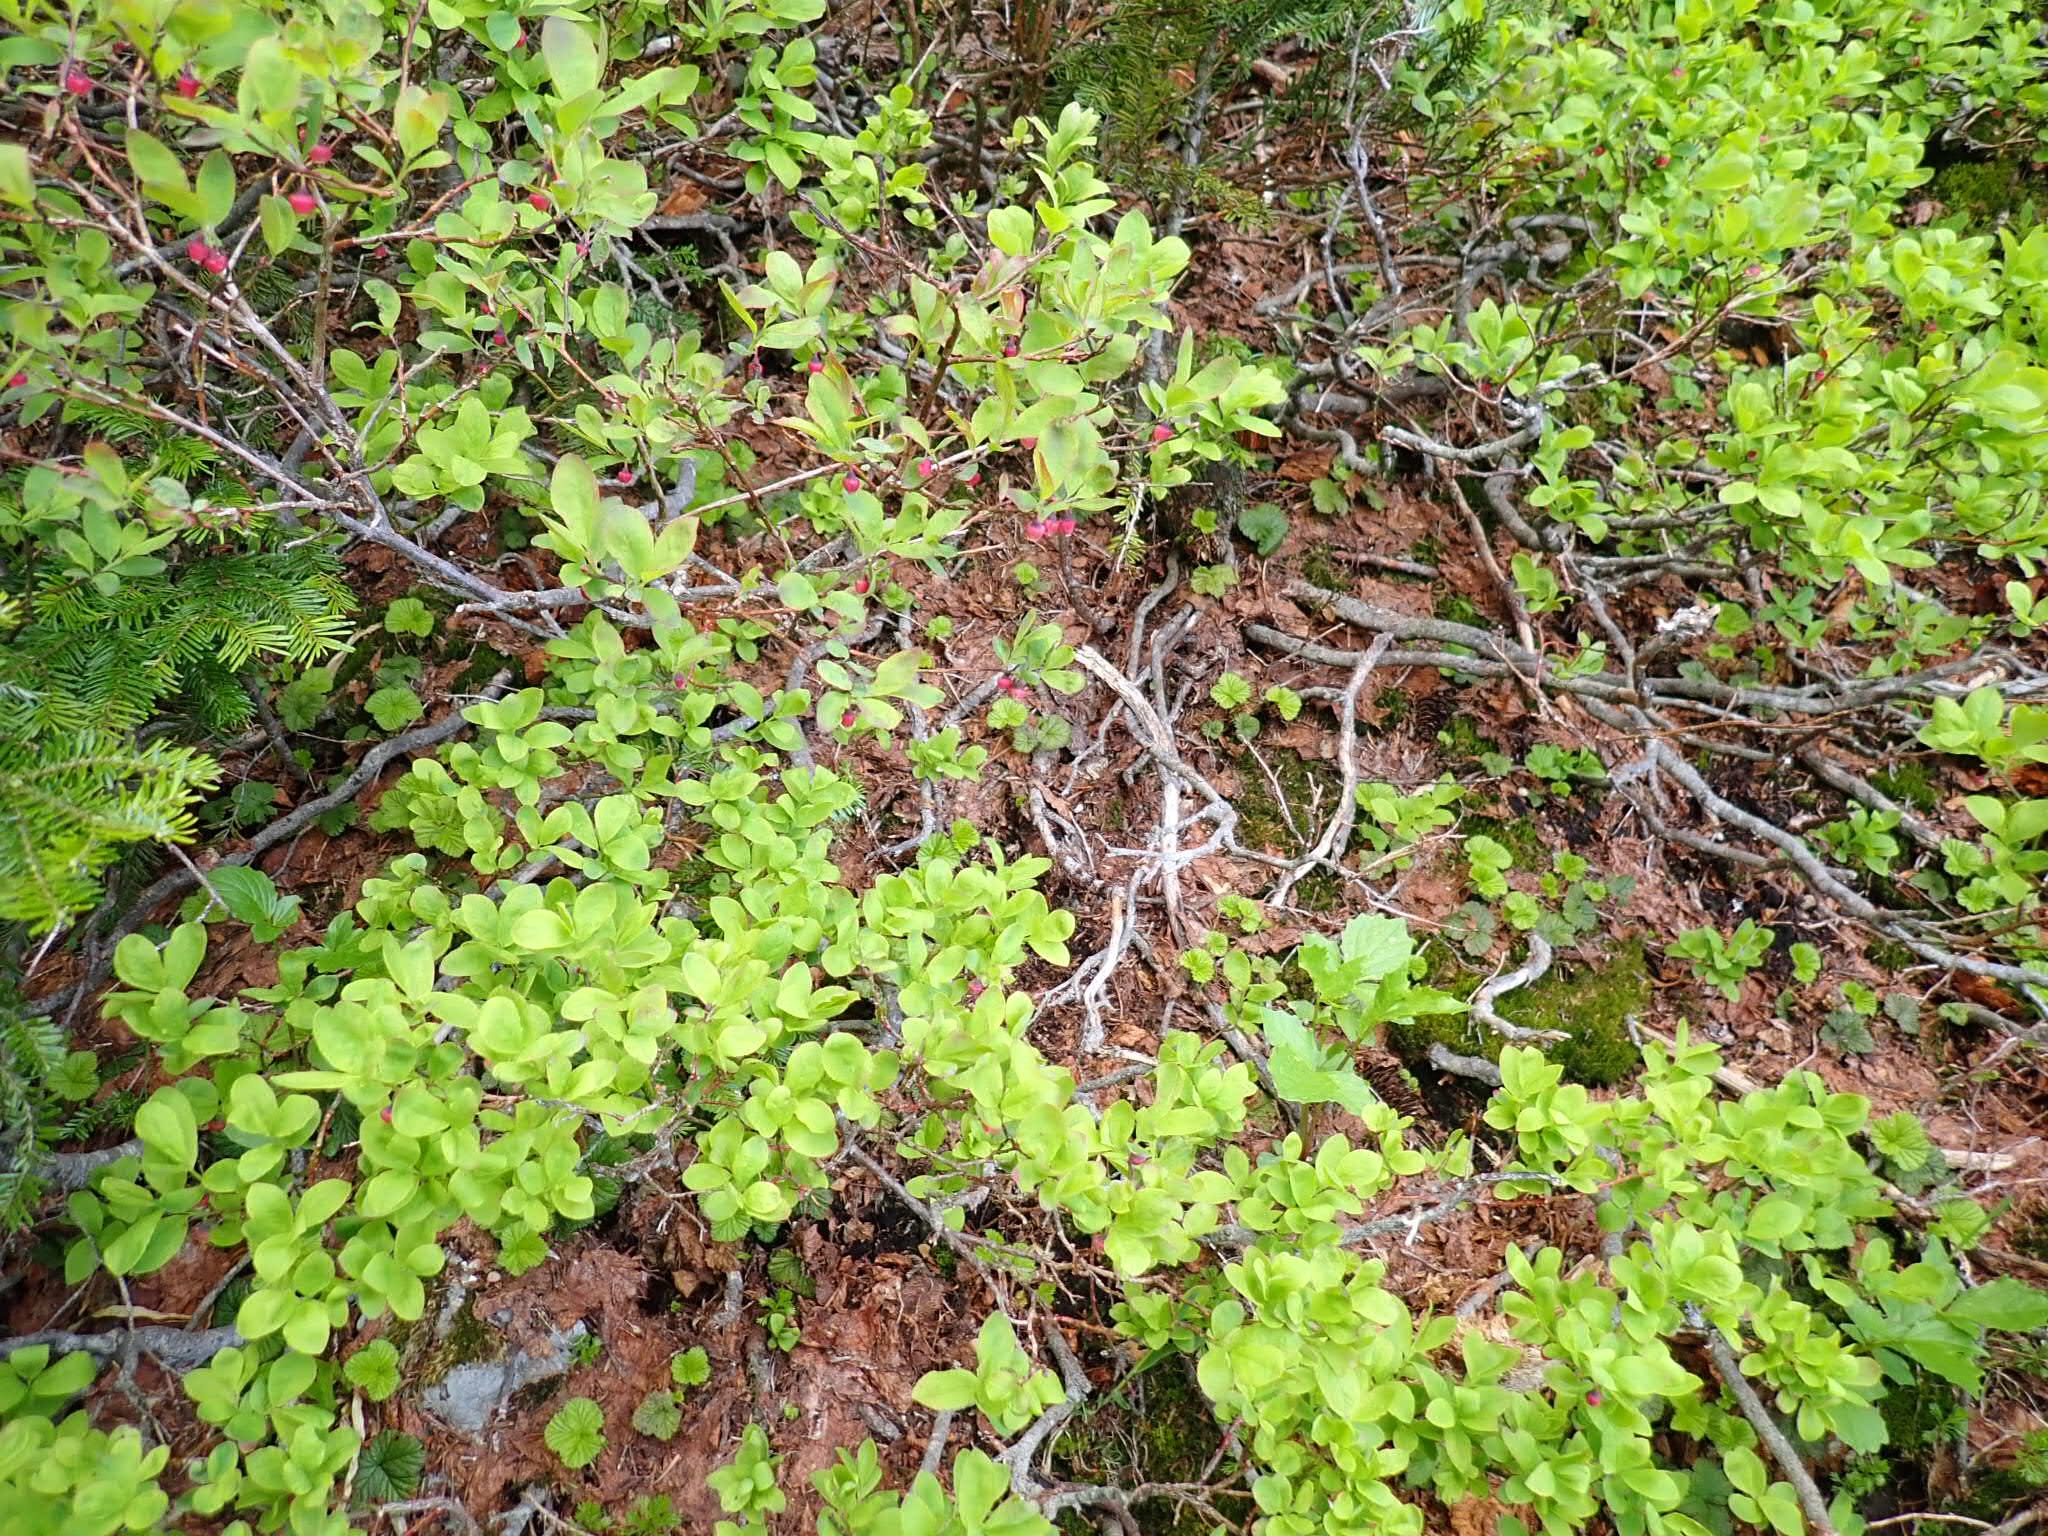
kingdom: Plantae
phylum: Tracheophyta
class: Magnoliopsida
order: Ericales
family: Ericaceae
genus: Vaccinium
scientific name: Vaccinium ovalifolium
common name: Early blueberry
